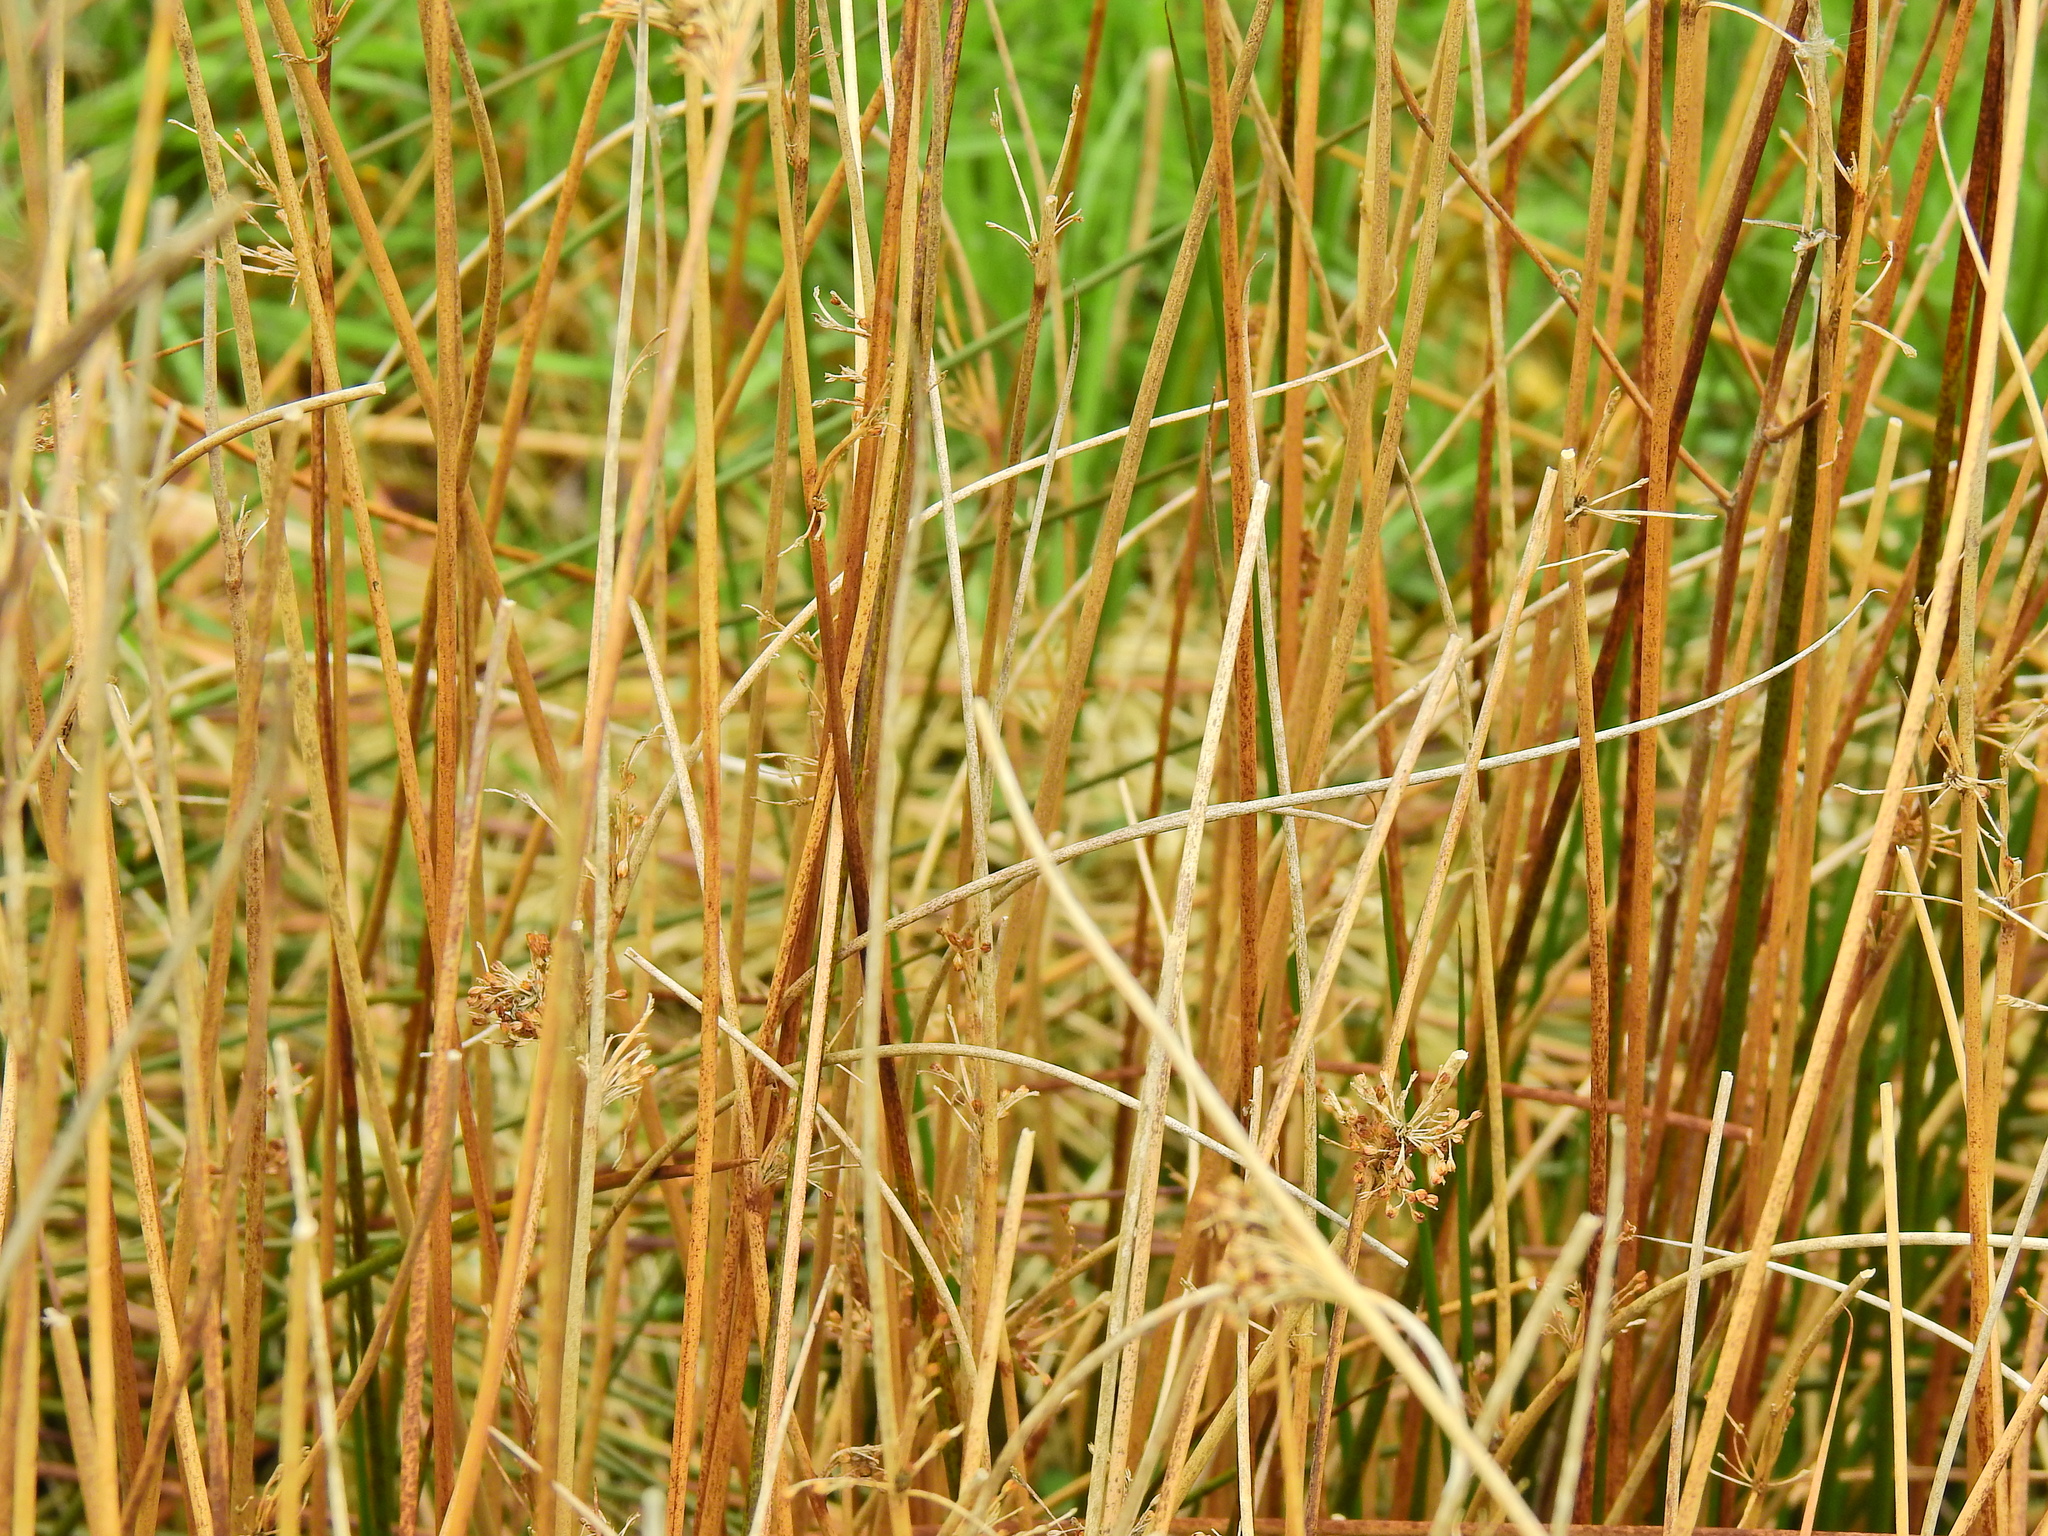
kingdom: Plantae
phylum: Tracheophyta
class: Liliopsida
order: Poales
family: Juncaceae
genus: Juncus
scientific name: Juncus conglomeratus
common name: Compact rush
